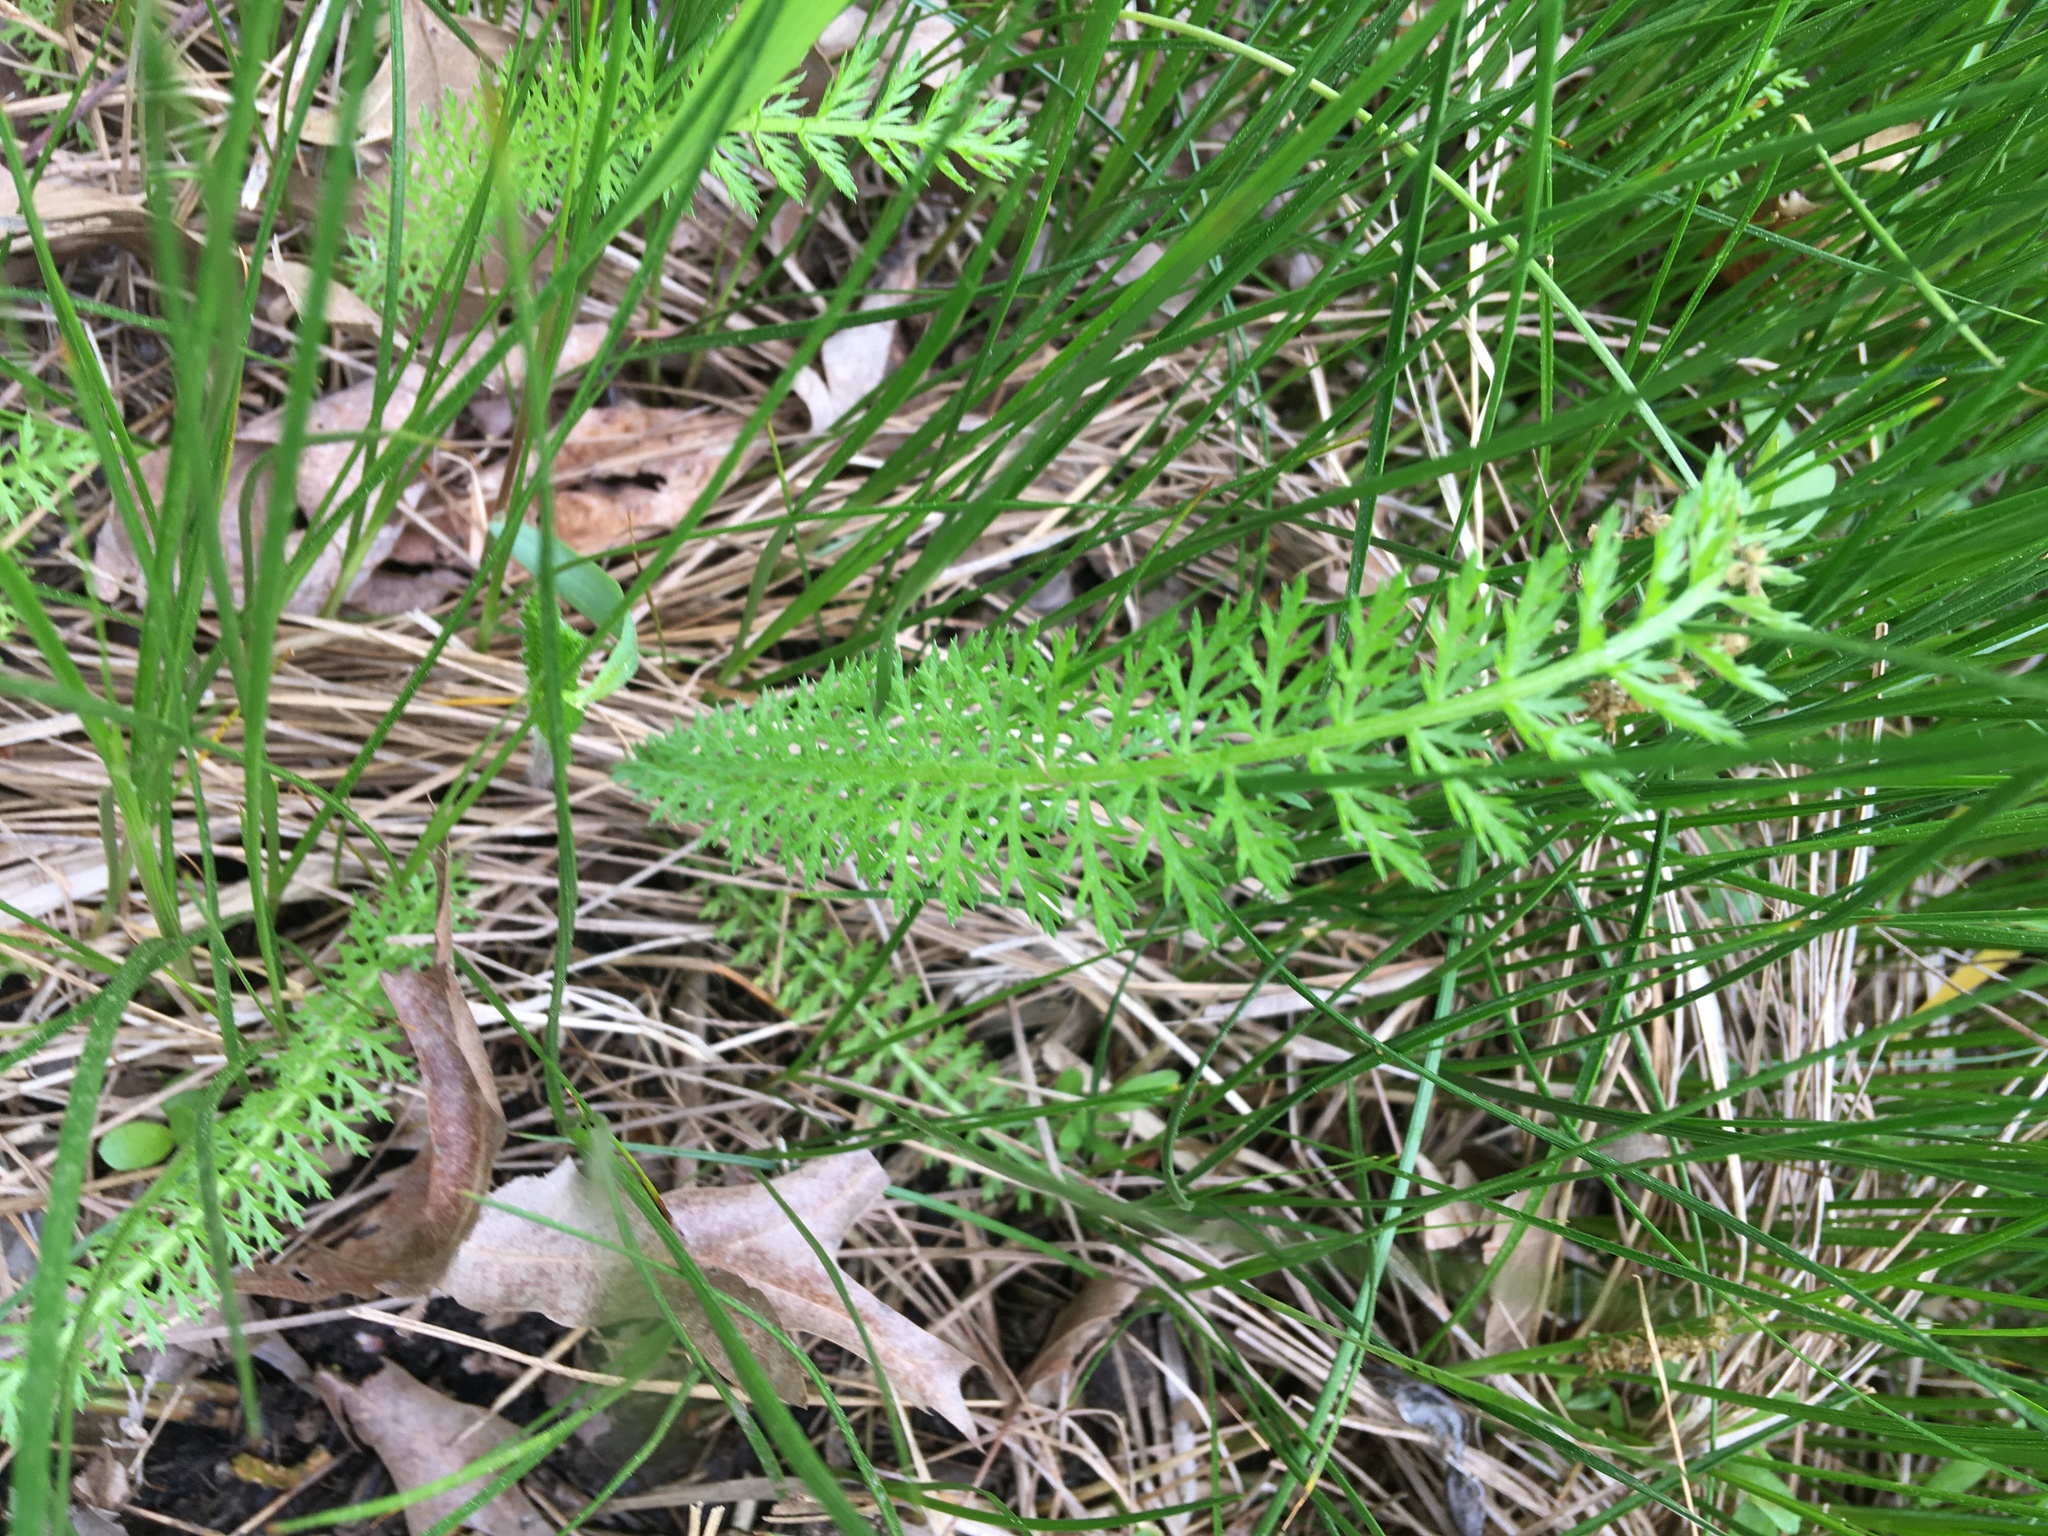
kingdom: Plantae
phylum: Tracheophyta
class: Magnoliopsida
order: Asterales
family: Asteraceae
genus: Achillea
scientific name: Achillea millefolium
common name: Yarrow
